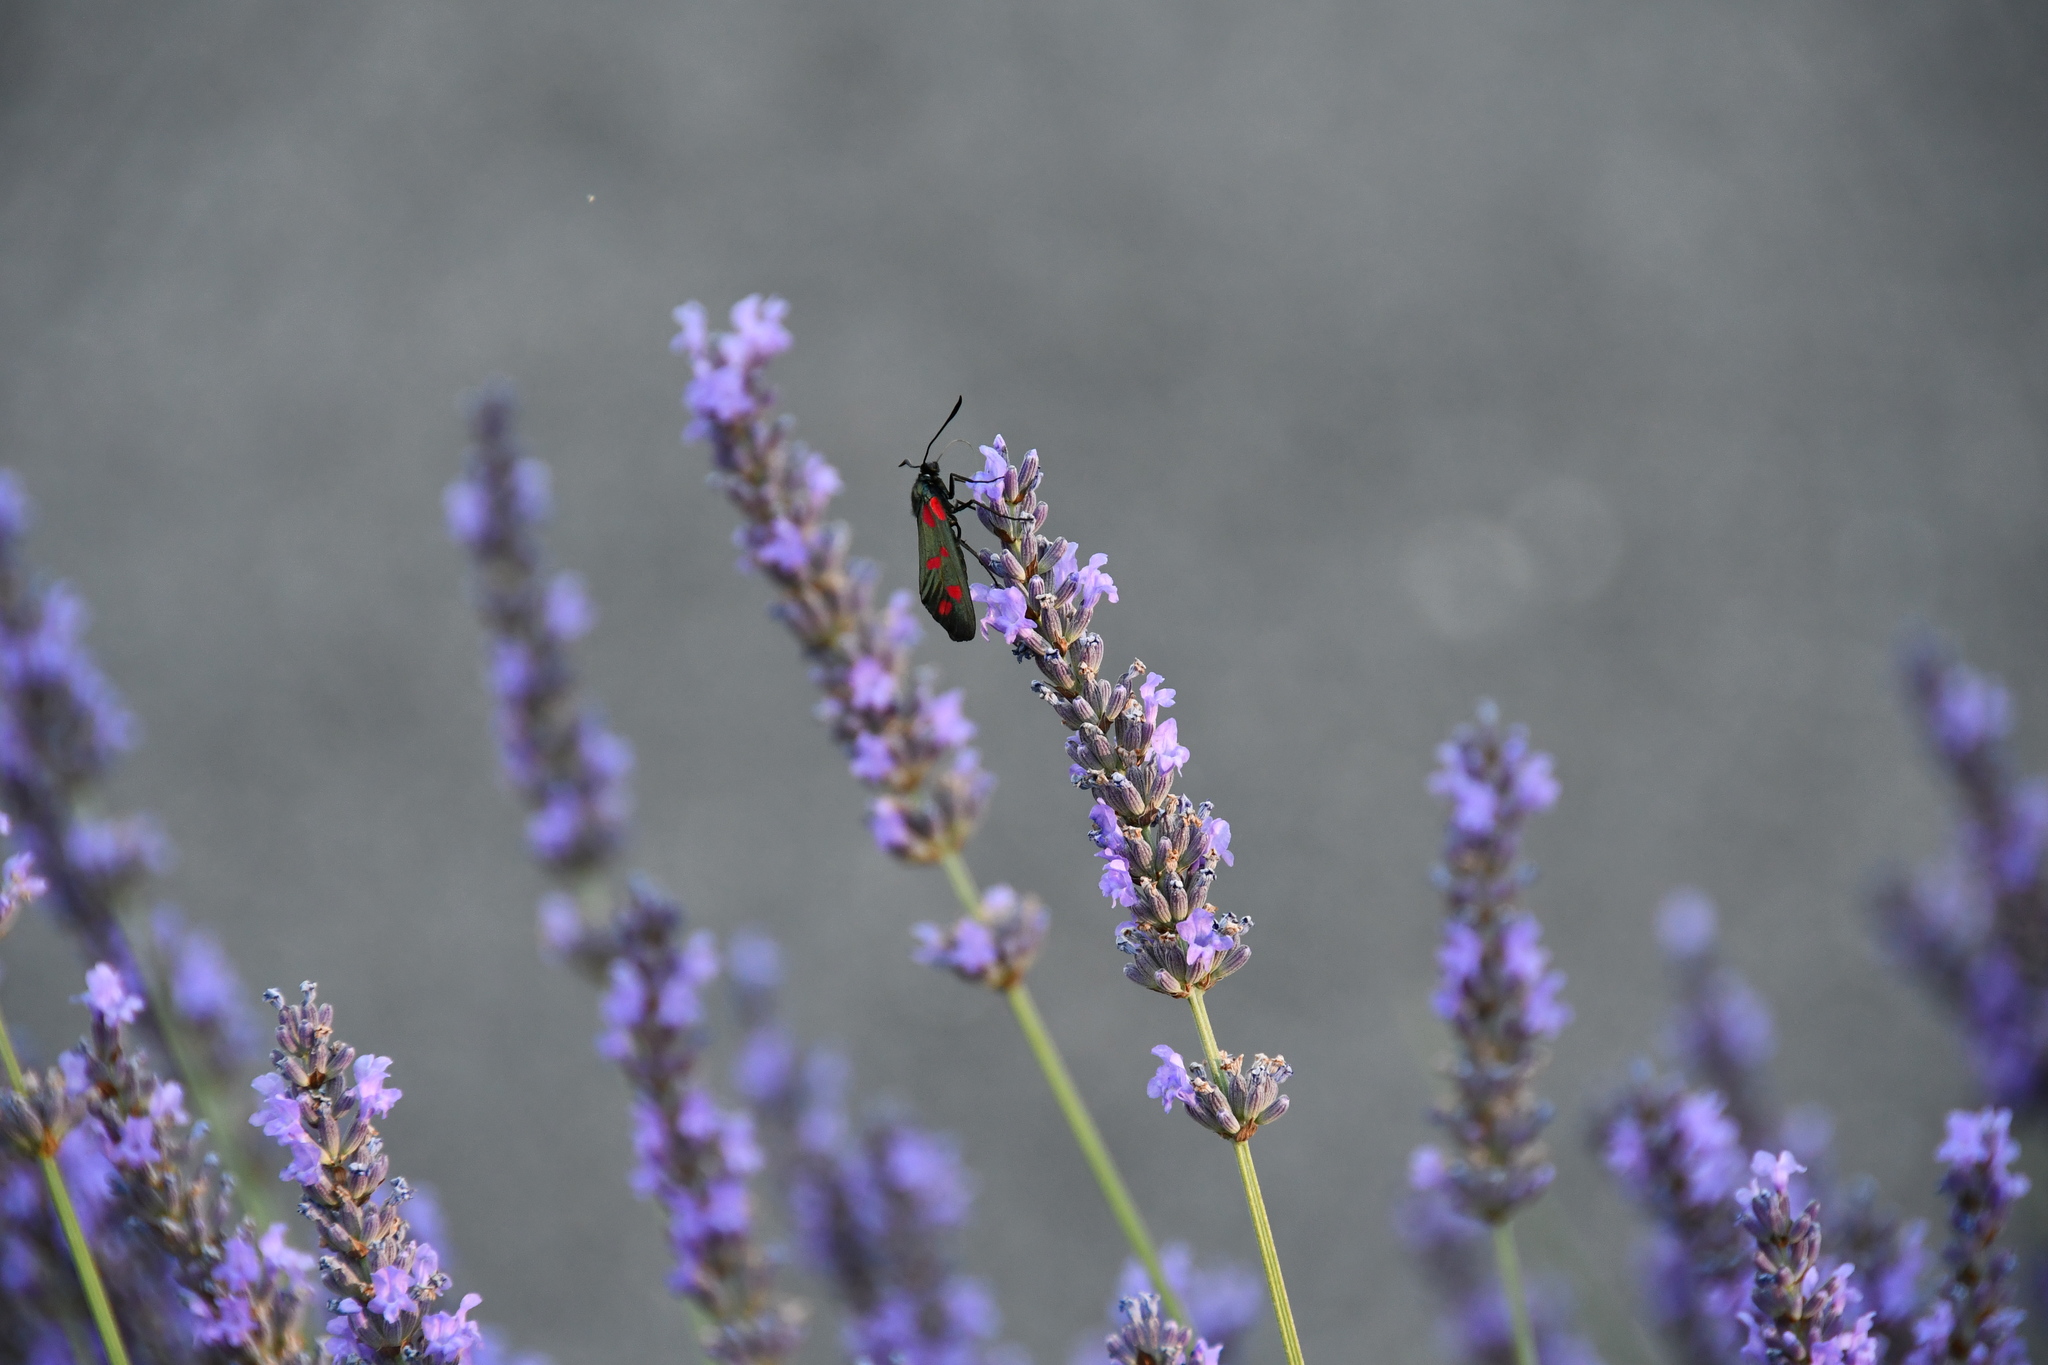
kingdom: Animalia
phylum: Arthropoda
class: Insecta
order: Lepidoptera
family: Zygaenidae
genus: Zygaena
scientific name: Zygaena filipendulae
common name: Six-spot burnet
